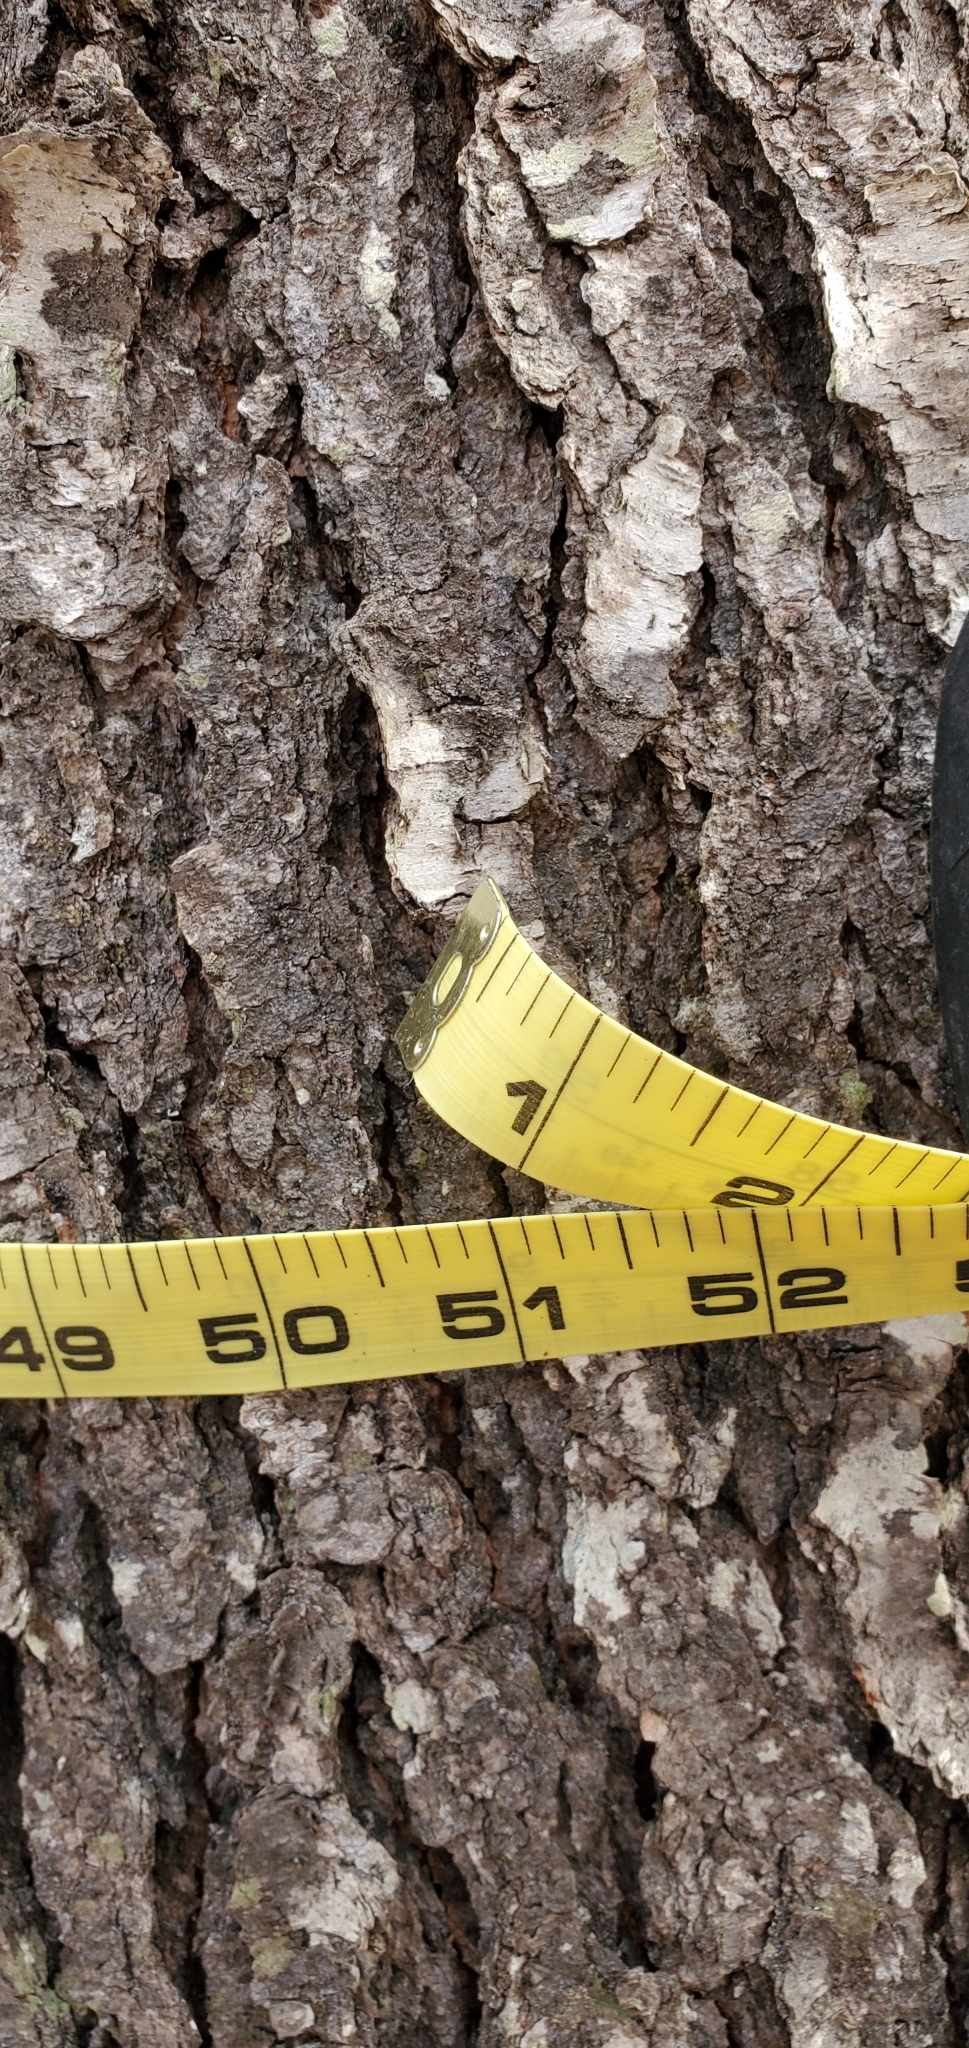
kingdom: Plantae
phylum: Tracheophyta
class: Magnoliopsida
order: Rosales
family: Rosaceae
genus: Prunus
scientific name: Prunus serotina
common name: Black cherry
